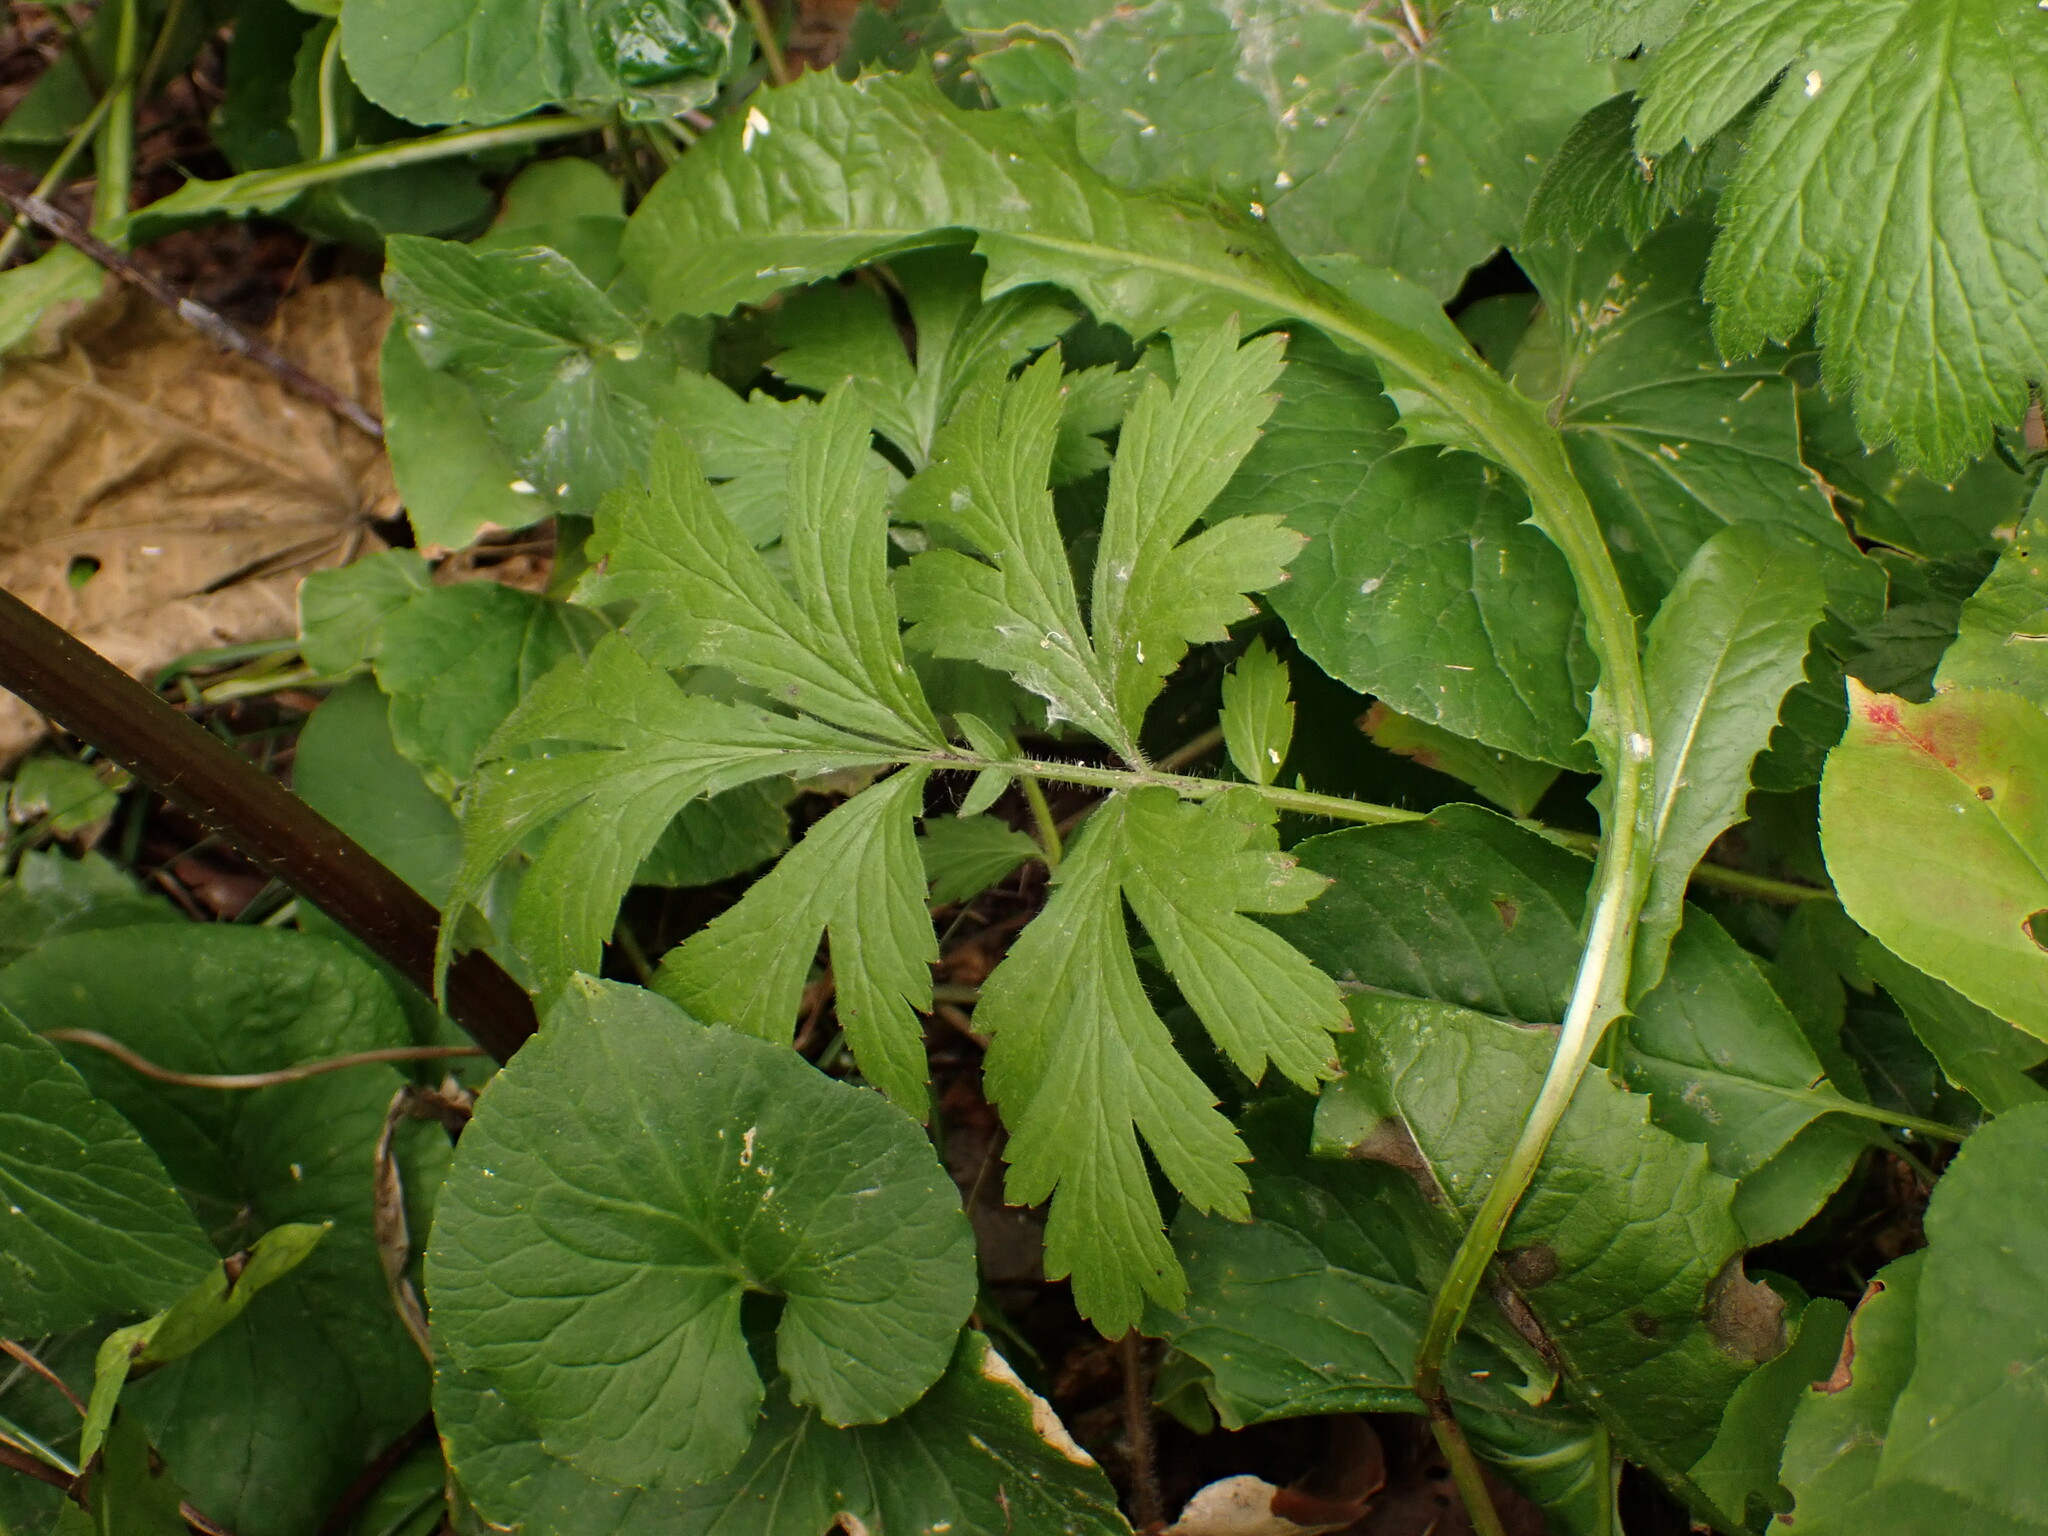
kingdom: Plantae
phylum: Tracheophyta
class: Magnoliopsida
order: Rosales
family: Rosaceae
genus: Geum
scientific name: Geum aleppicum
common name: Yellow avens
